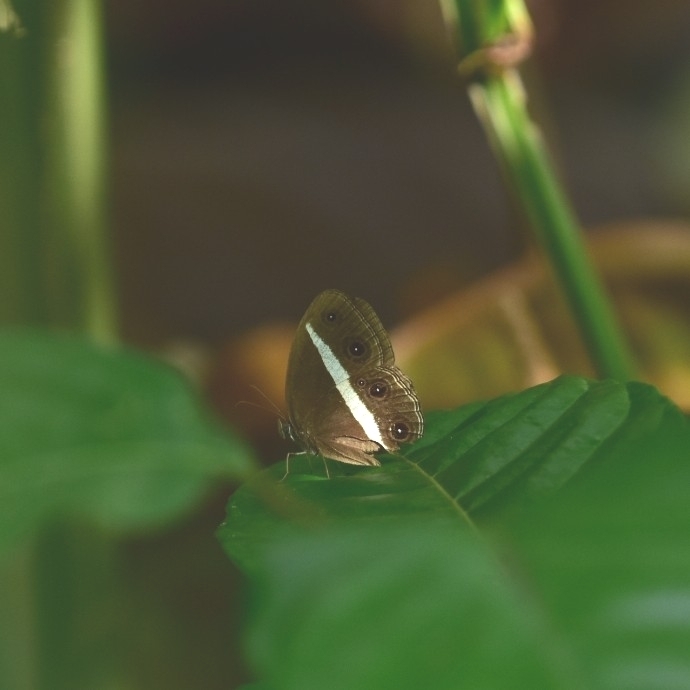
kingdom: Animalia
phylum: Arthropoda
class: Insecta
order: Lepidoptera
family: Nymphalidae
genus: Orsotriaena
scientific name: Orsotriaena medus
